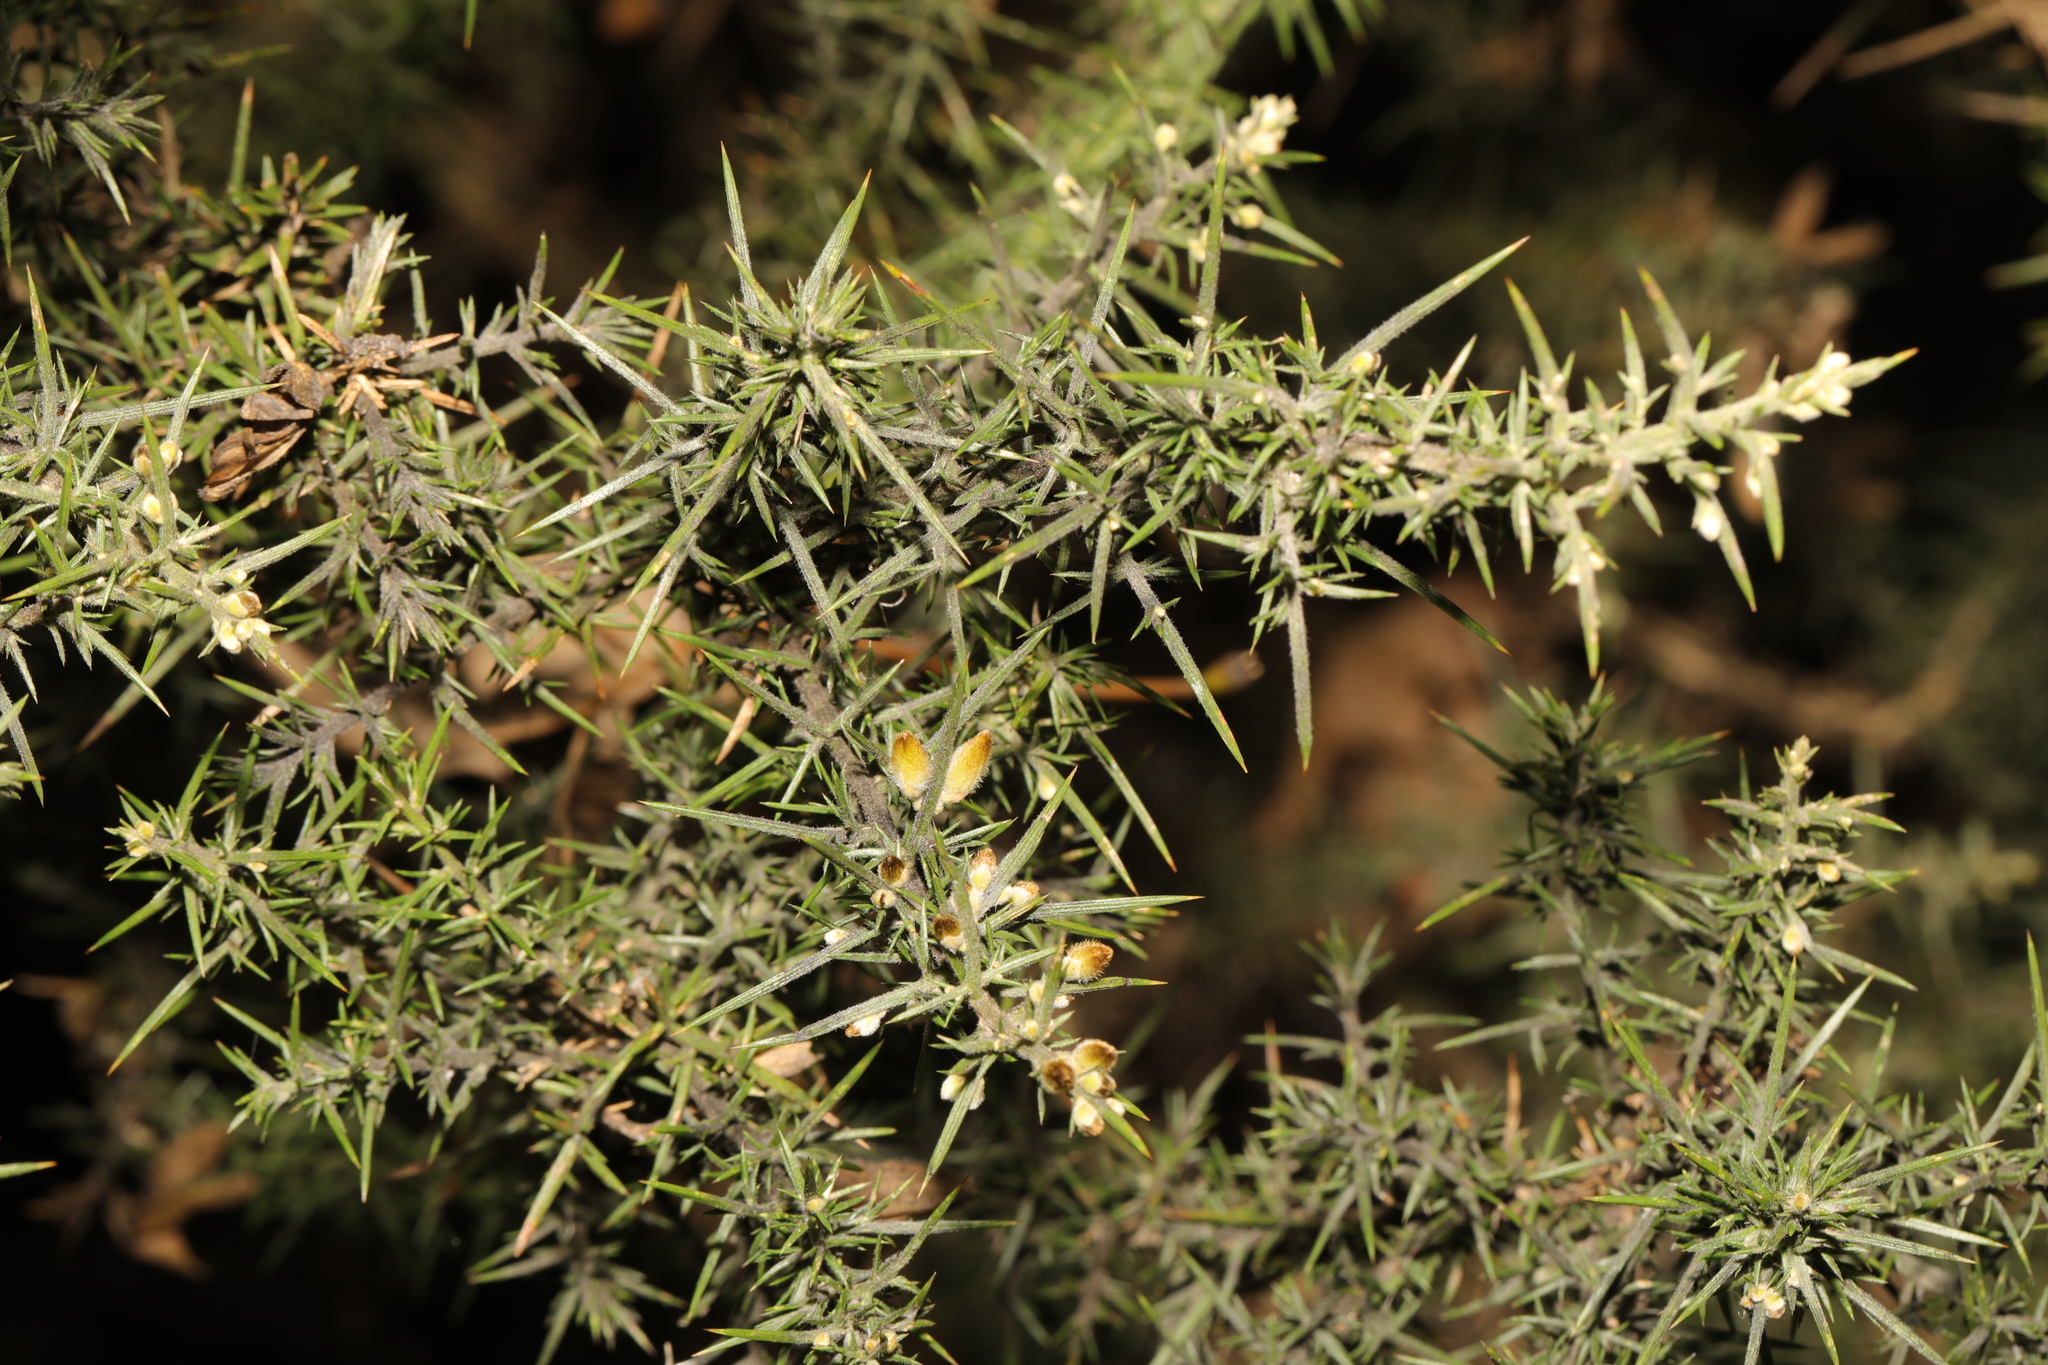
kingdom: Plantae
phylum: Tracheophyta
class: Magnoliopsida
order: Fabales
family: Fabaceae
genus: Ulex
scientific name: Ulex europaeus
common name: Common gorse
